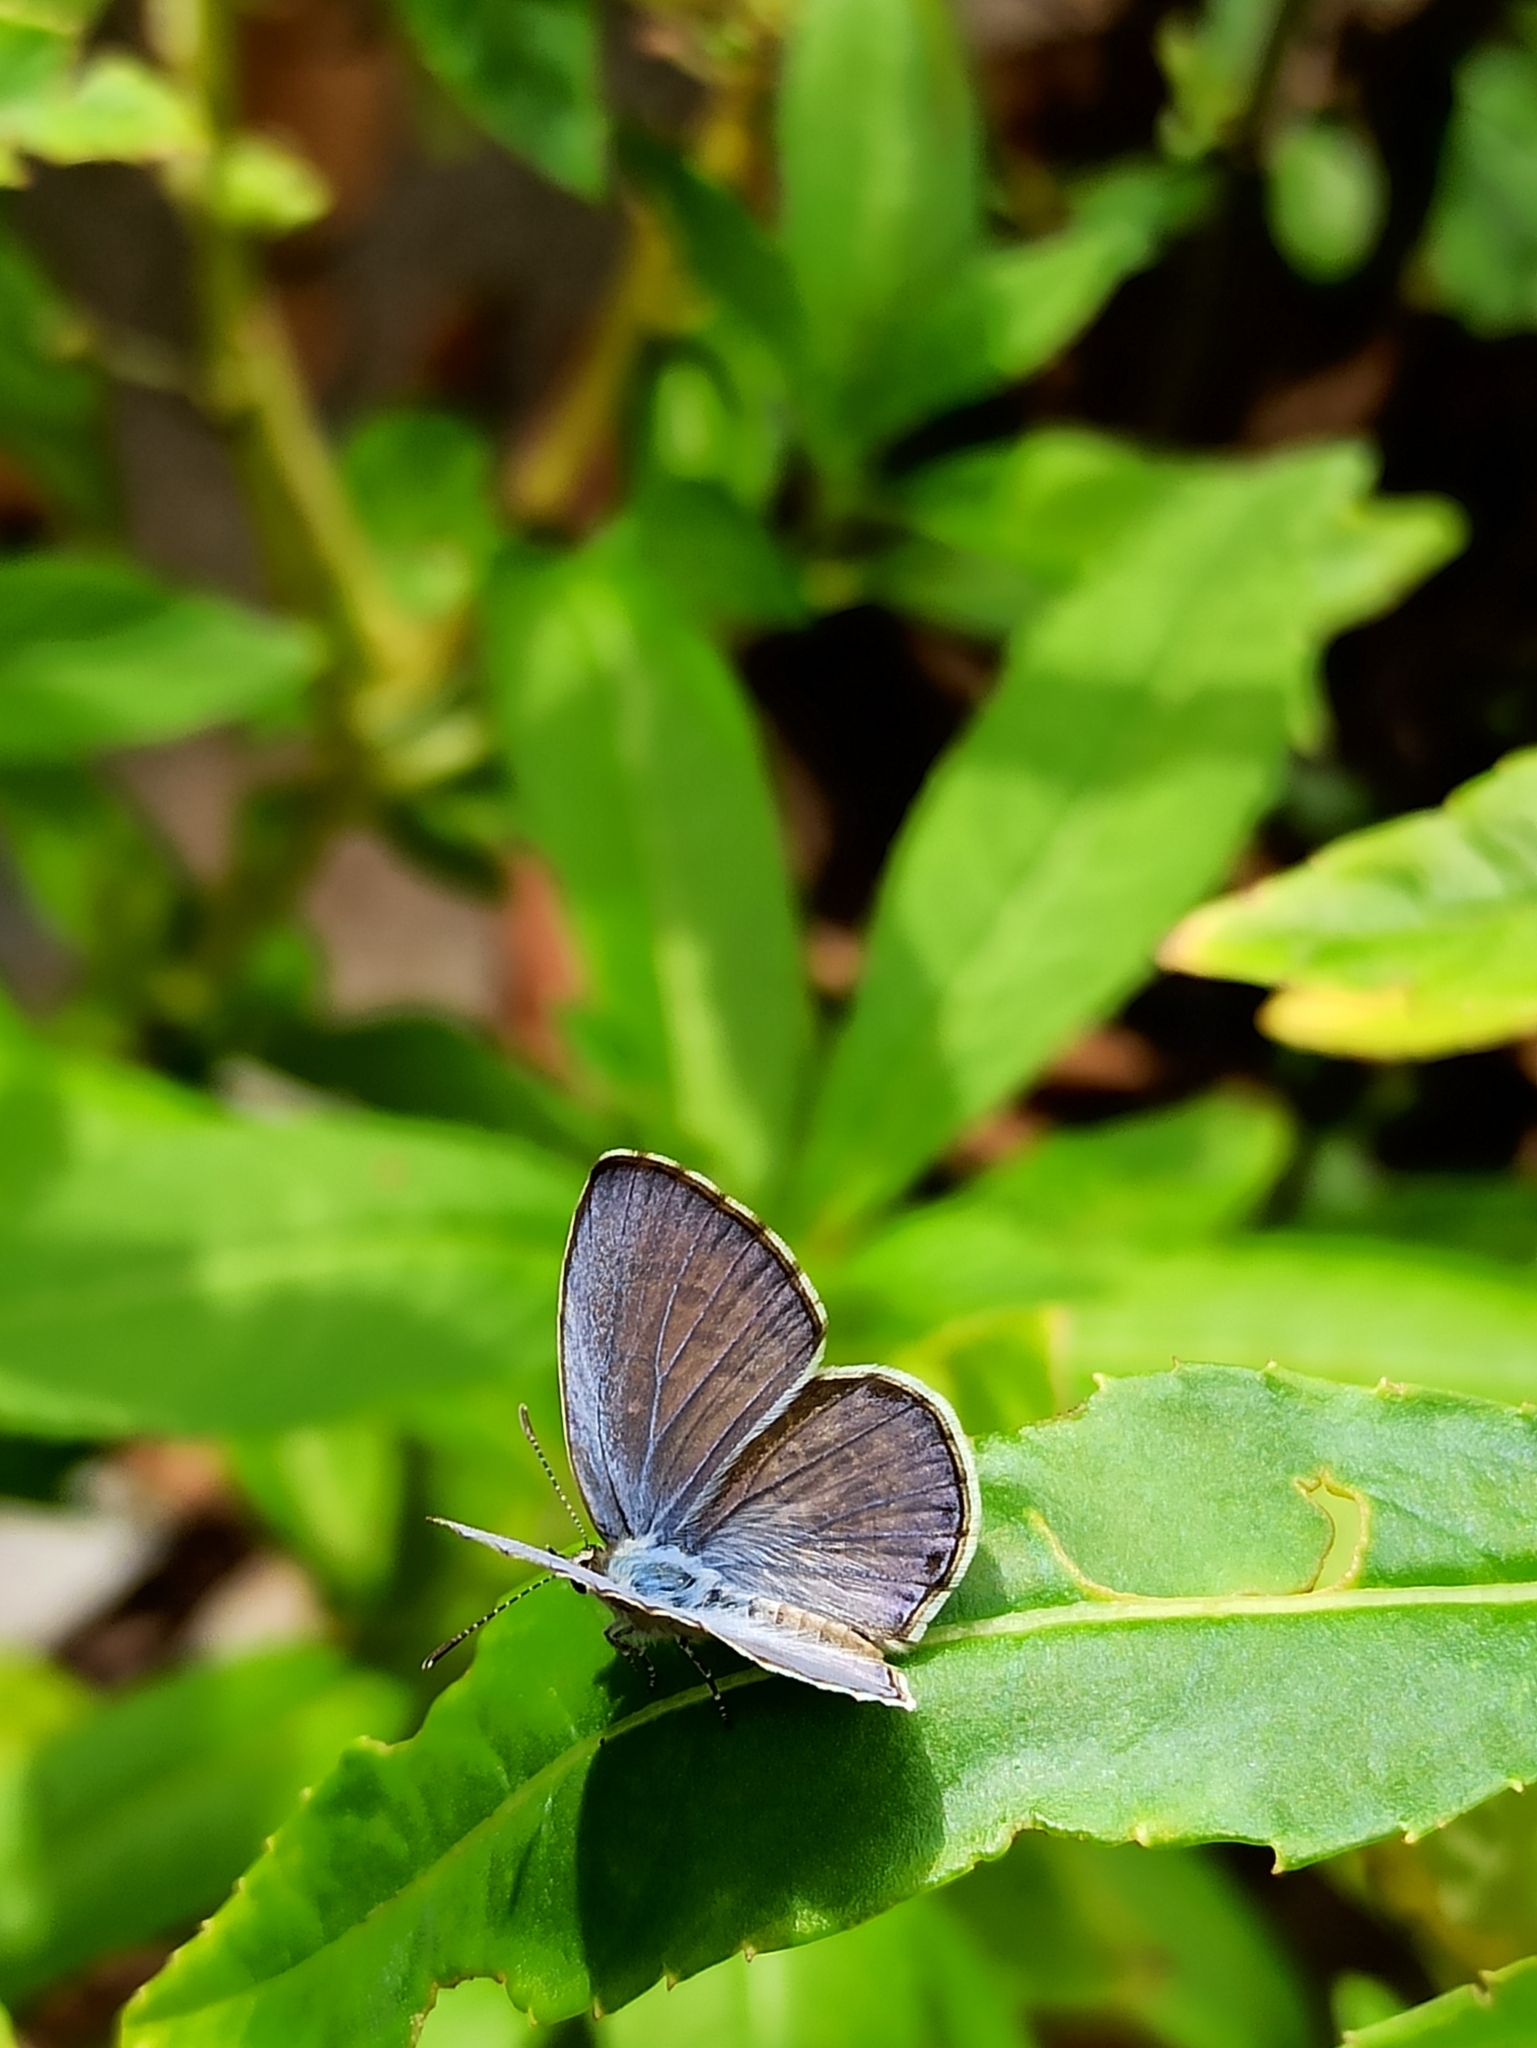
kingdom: Animalia
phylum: Arthropoda
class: Insecta
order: Lepidoptera
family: Lycaenidae
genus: Chilades
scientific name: Chilades laius
